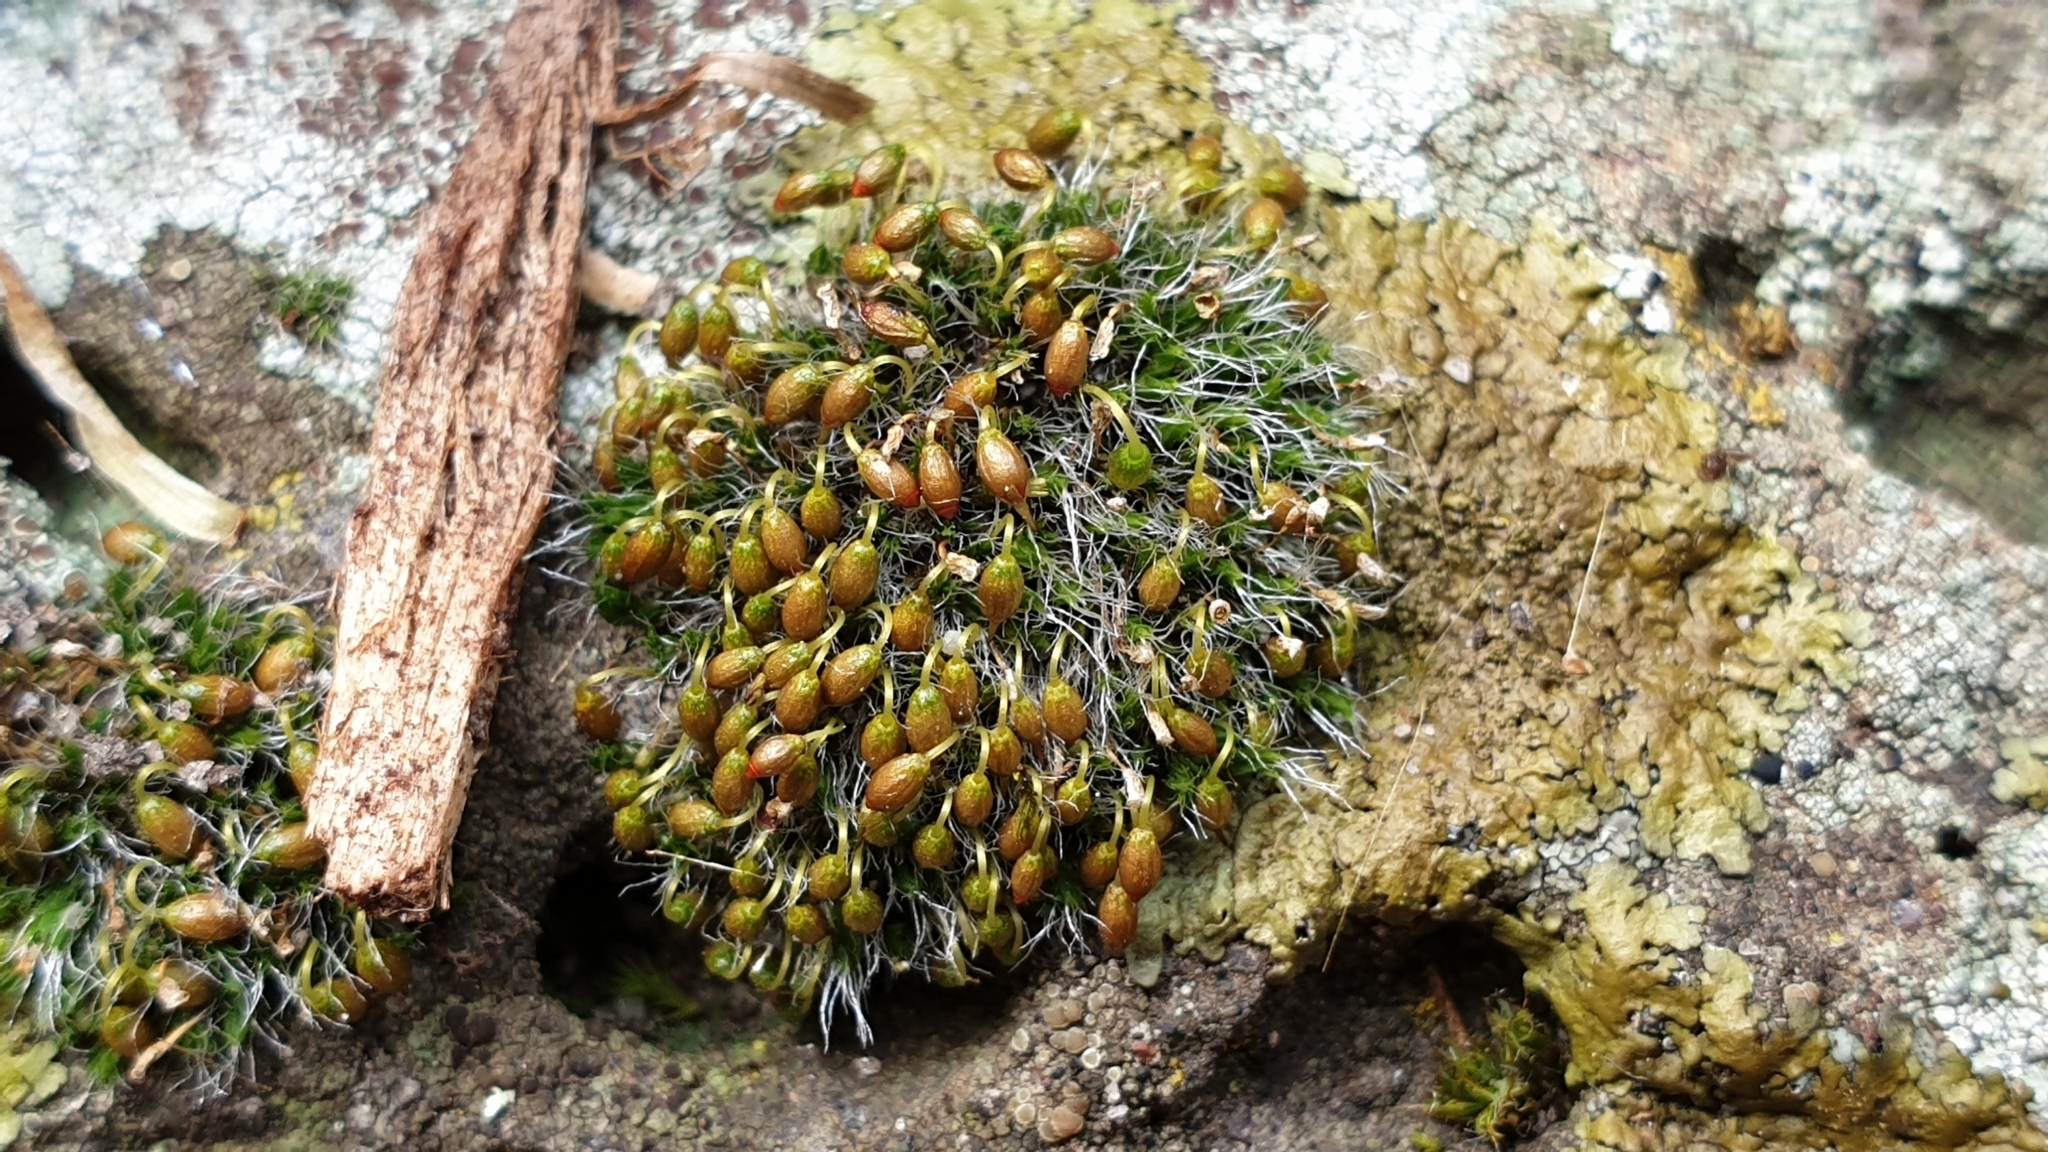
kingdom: Plantae
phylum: Bryophyta
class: Bryopsida
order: Grimmiales
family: Grimmiaceae
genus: Grimmia
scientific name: Grimmia pulvinata
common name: Grey-cushioned grimmia
